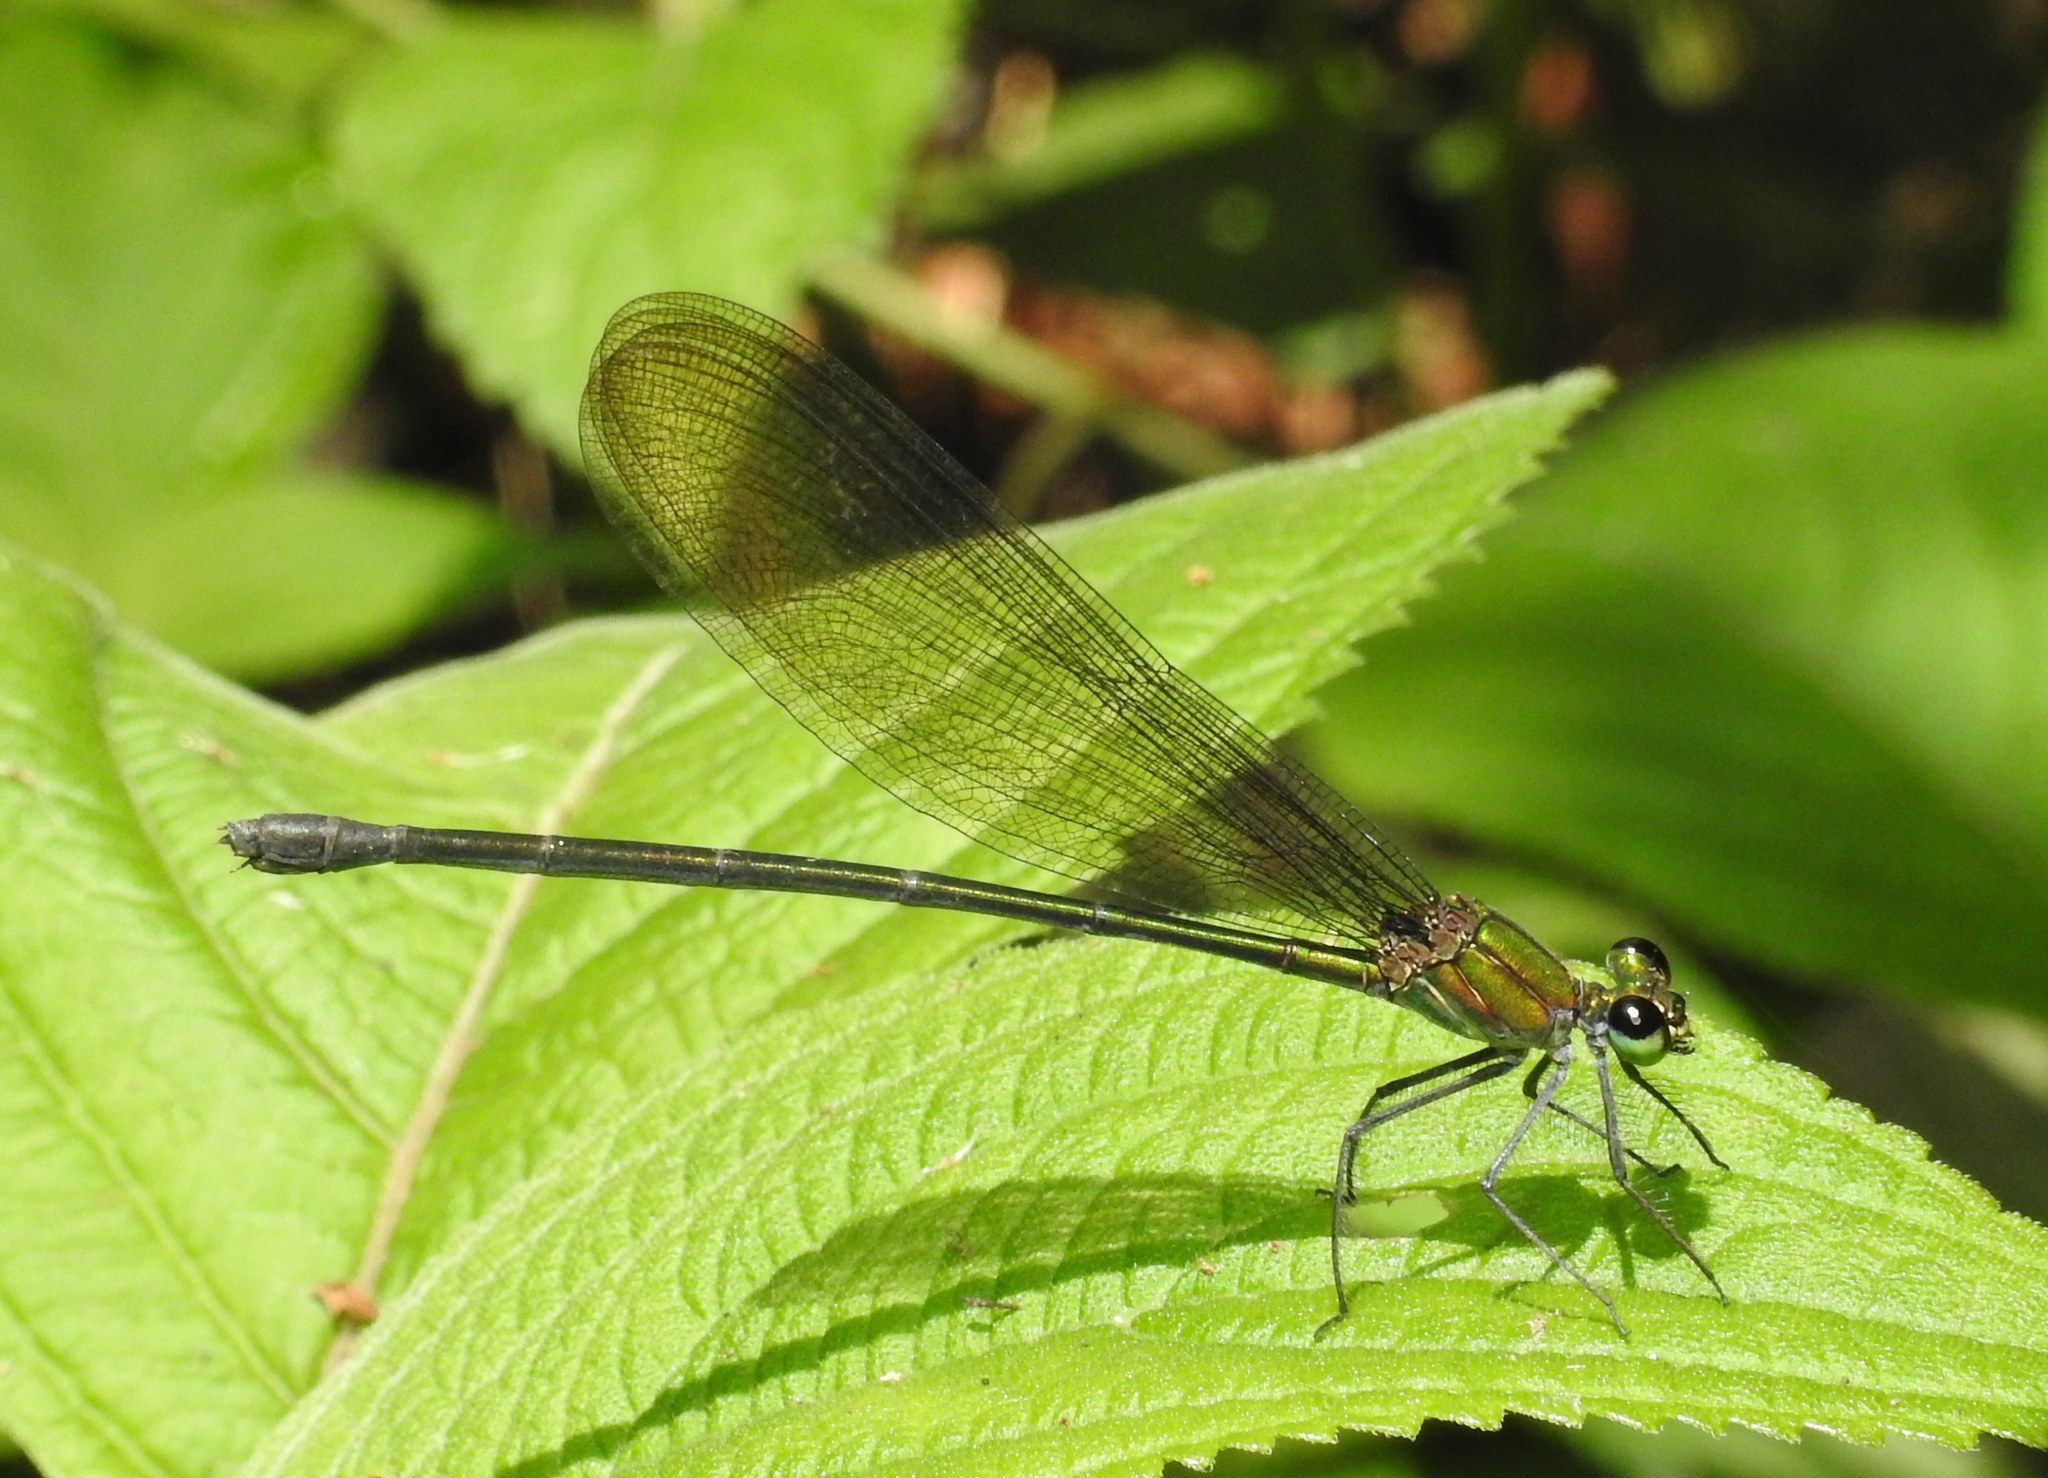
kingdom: Animalia
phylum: Arthropoda
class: Insecta
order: Odonata
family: Calopterygidae
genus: Vestalis
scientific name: Vestalis nigrescens
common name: Black-tipped demoiselle
